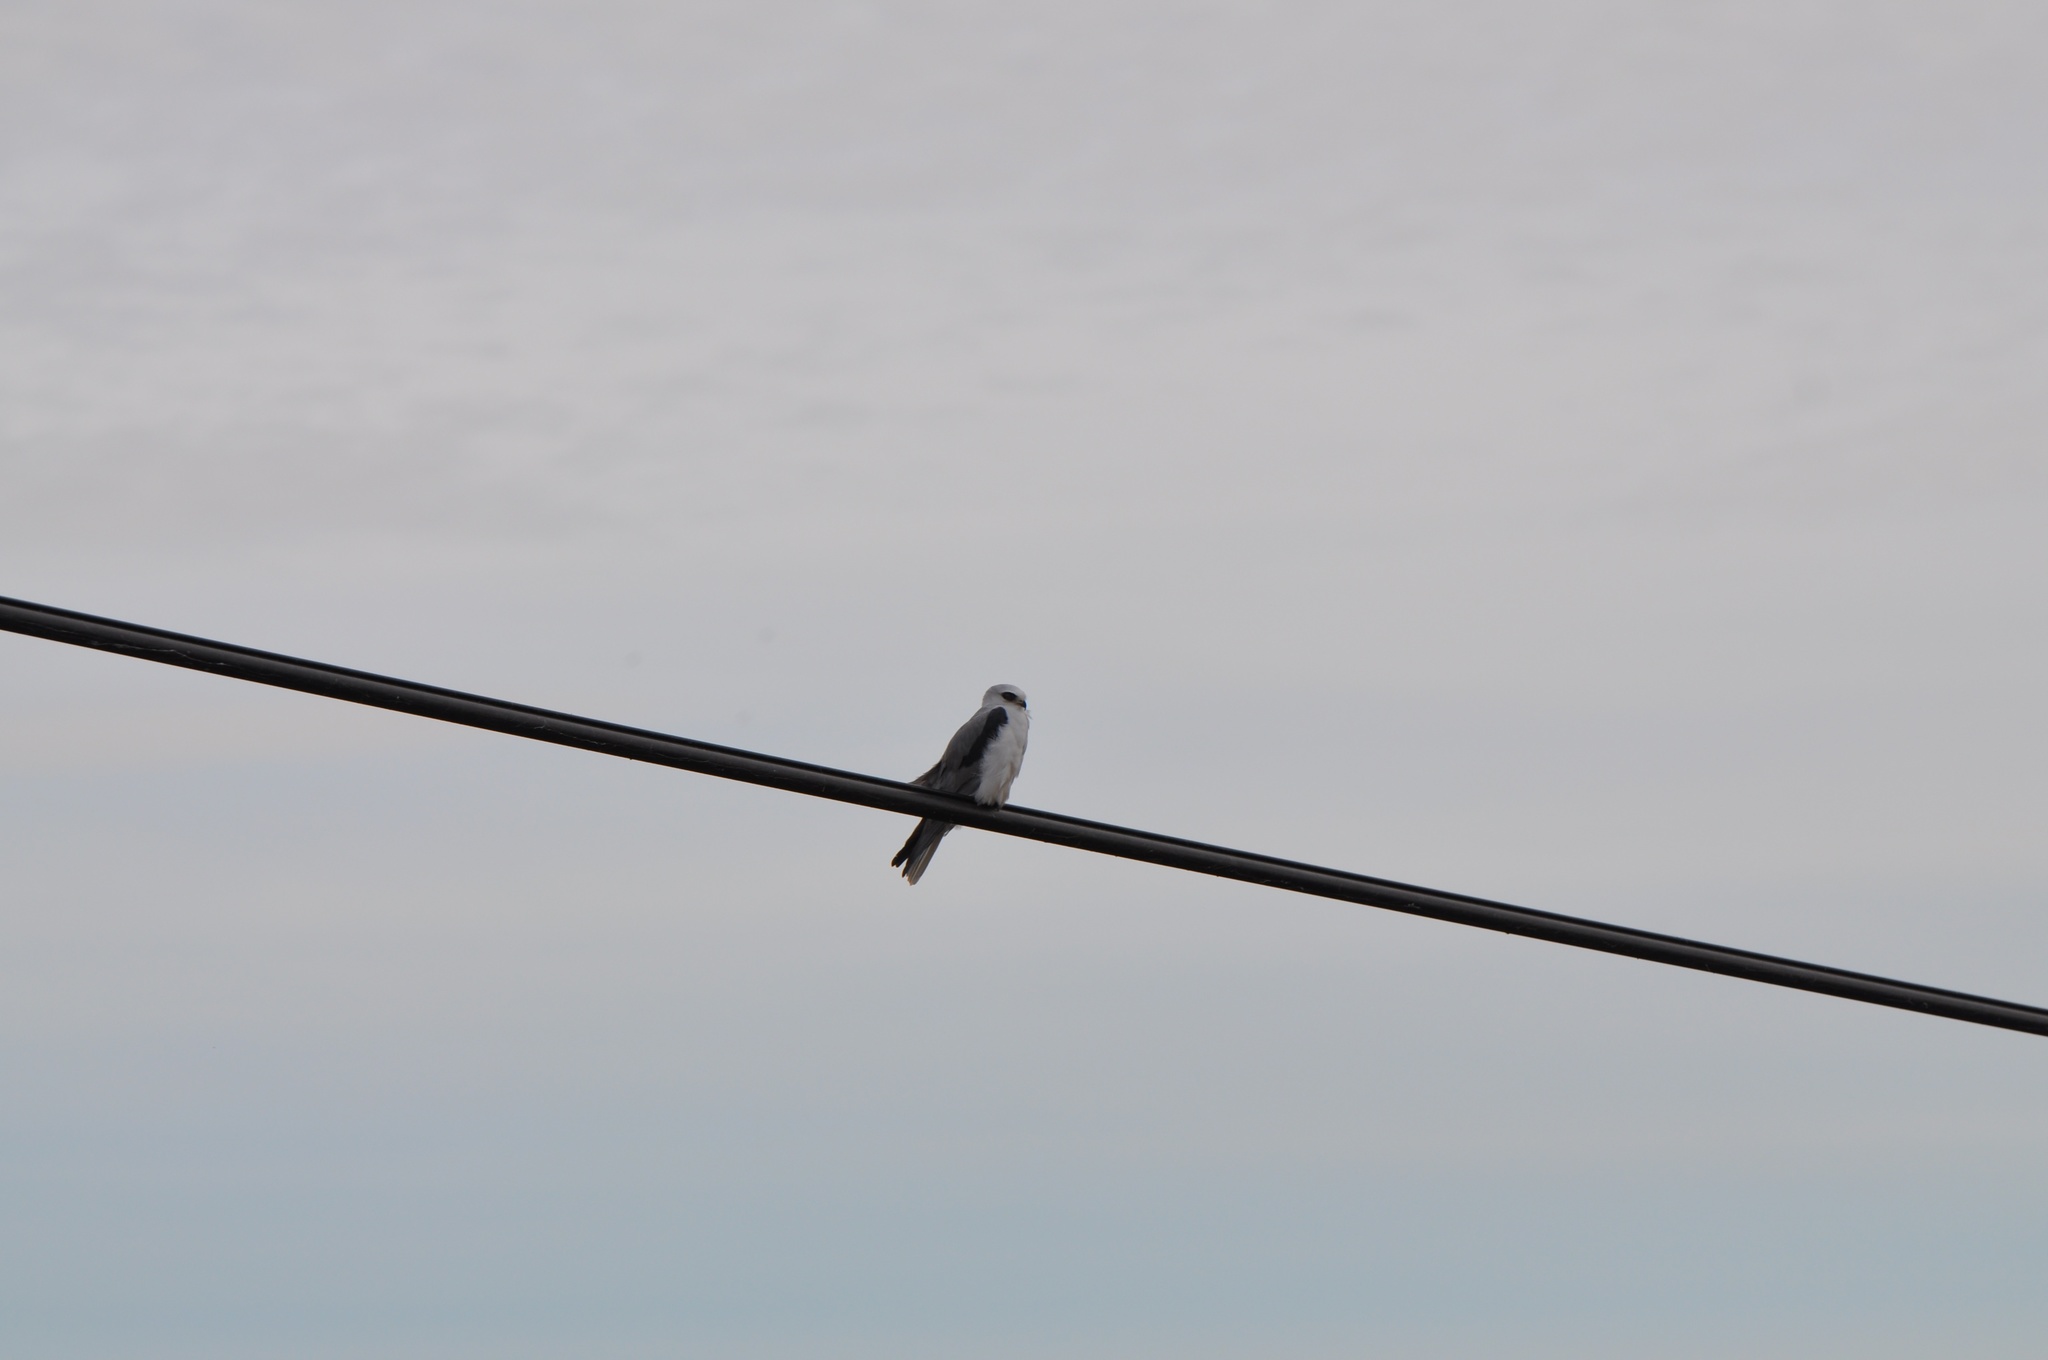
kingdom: Animalia
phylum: Chordata
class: Aves
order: Accipitriformes
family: Accipitridae
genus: Elanus
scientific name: Elanus leucurus
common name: White-tailed kite
